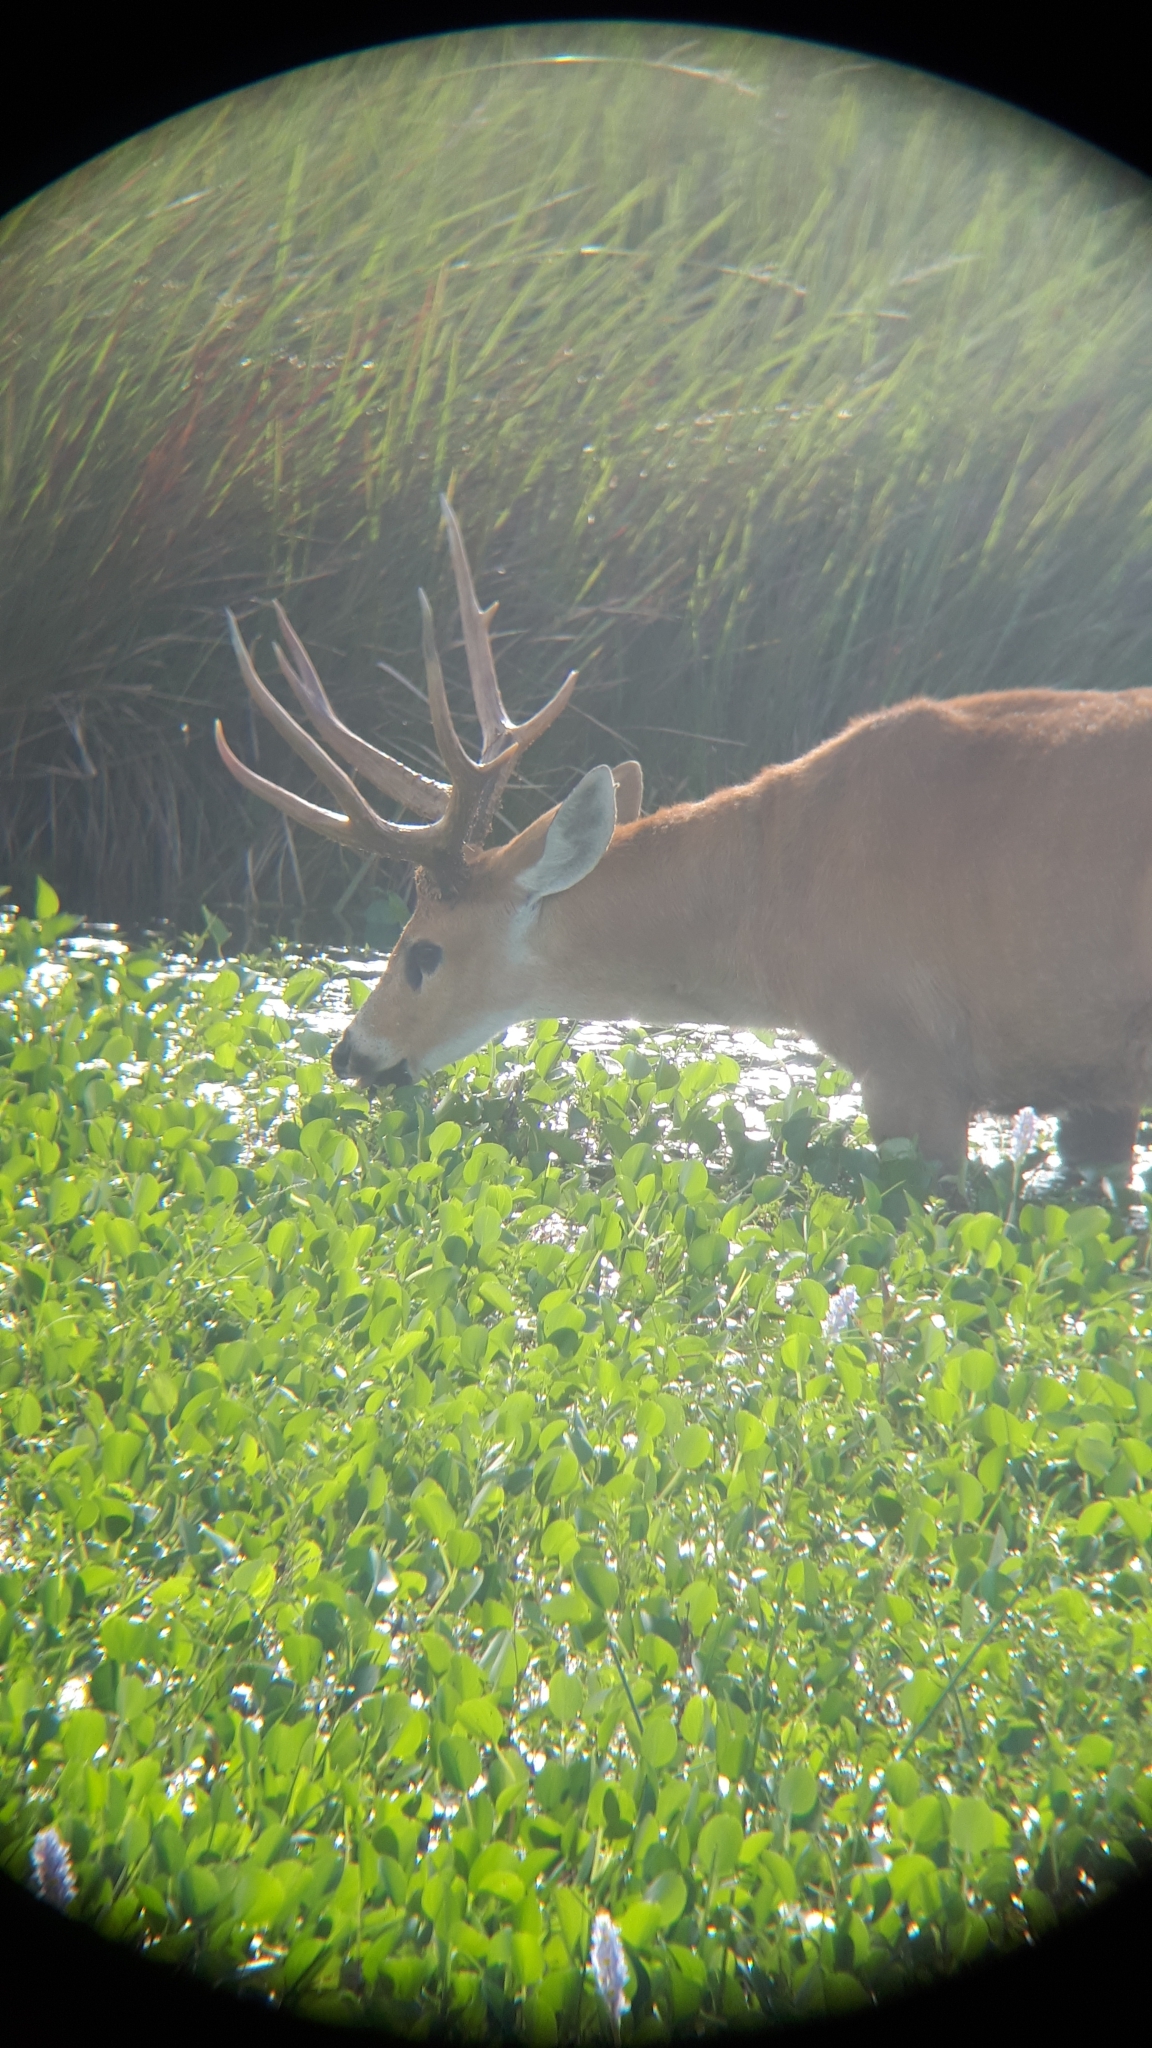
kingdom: Animalia
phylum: Chordata
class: Mammalia
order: Artiodactyla
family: Cervidae
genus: Blastocerus
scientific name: Blastocerus dichotomus
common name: Marsh deer
